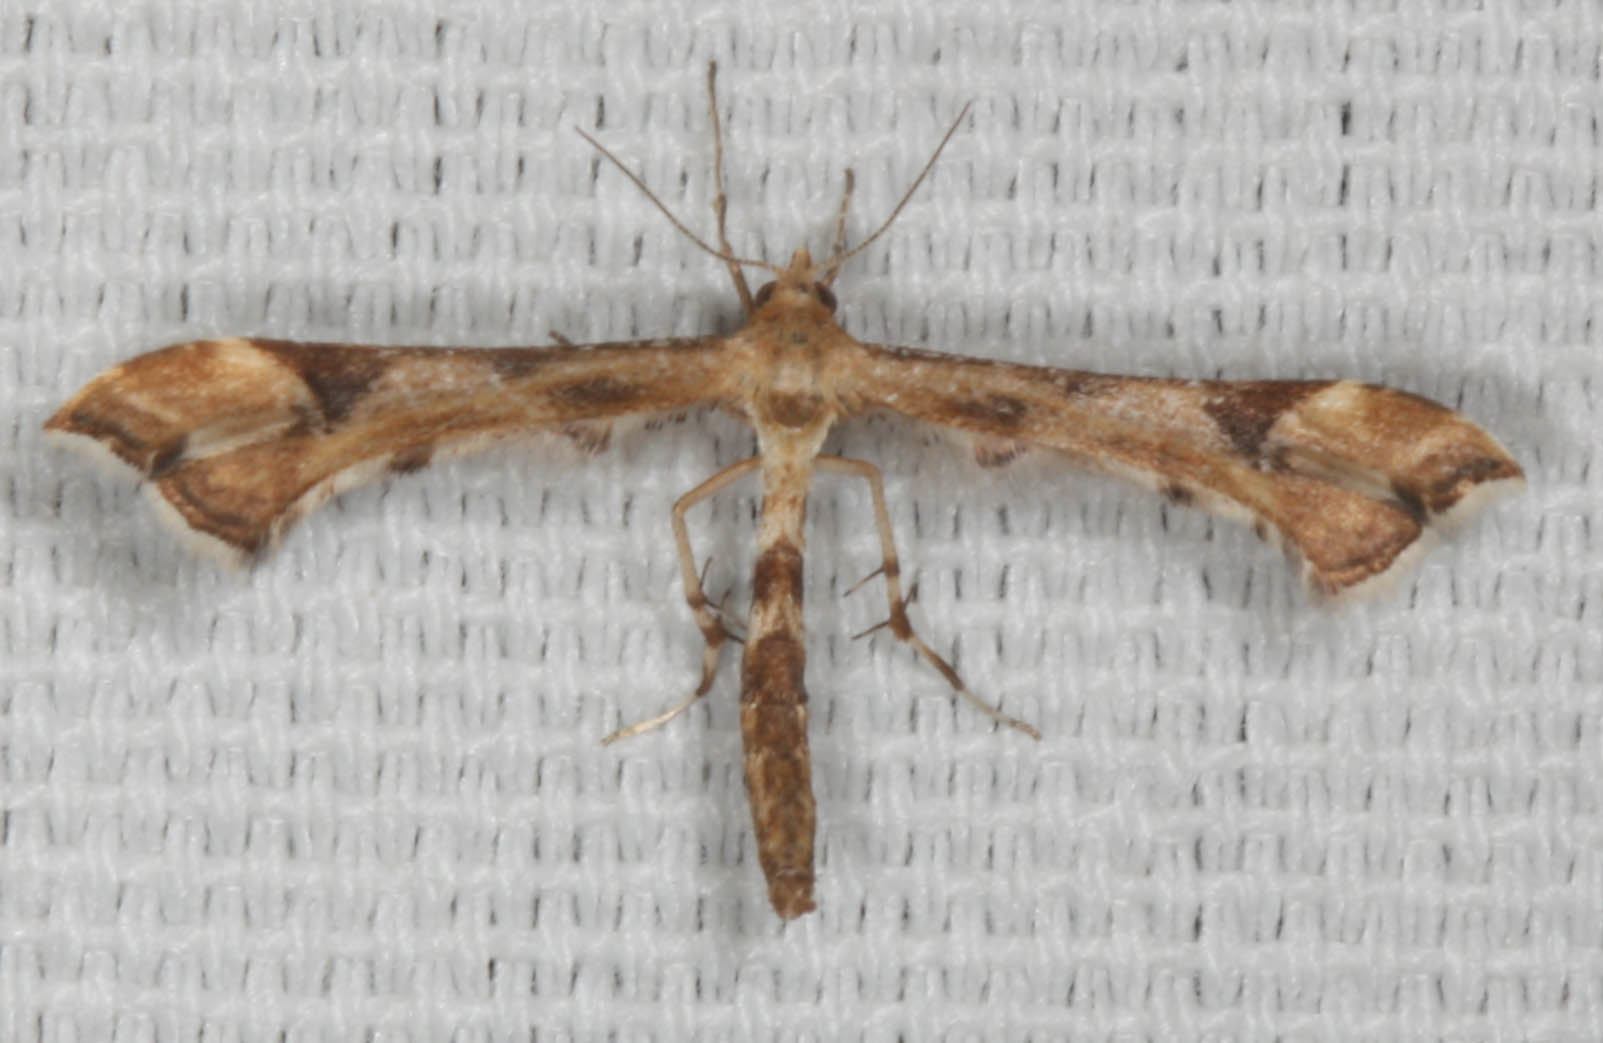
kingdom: Animalia
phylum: Arthropoda
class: Insecta
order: Lepidoptera
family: Pterophoridae
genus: Platyptilia
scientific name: Platyptilia carduidactylus
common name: Artichoke plume moth
